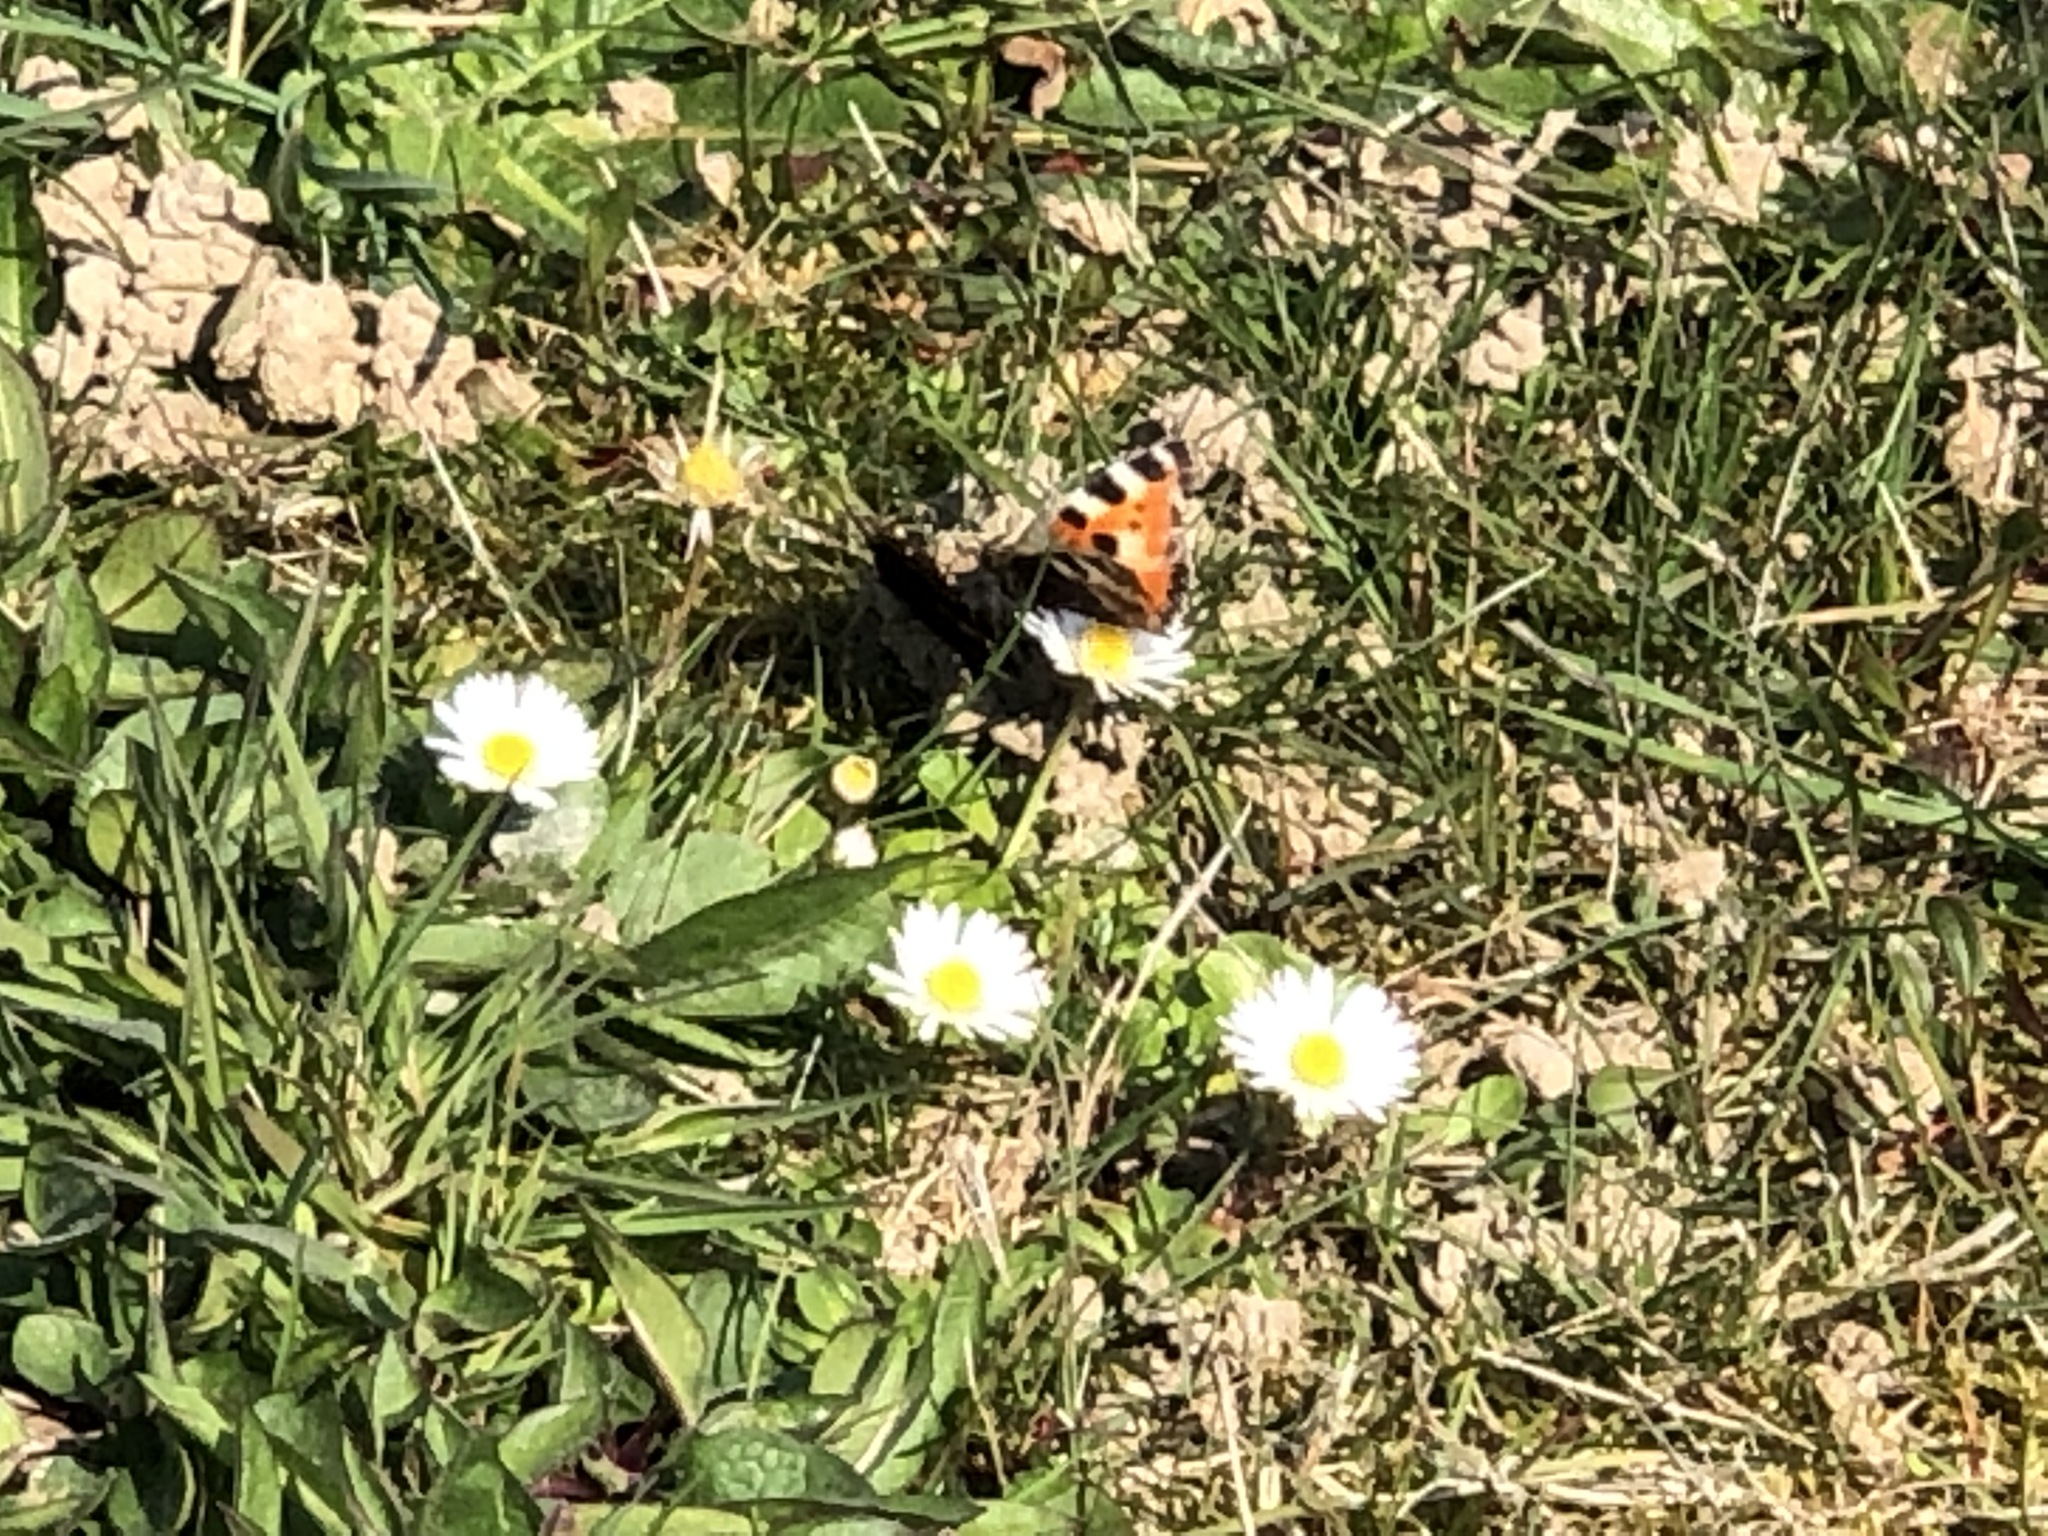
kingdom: Animalia
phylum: Arthropoda
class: Insecta
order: Lepidoptera
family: Nymphalidae
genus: Aglais
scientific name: Aglais urticae
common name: Small tortoiseshell
